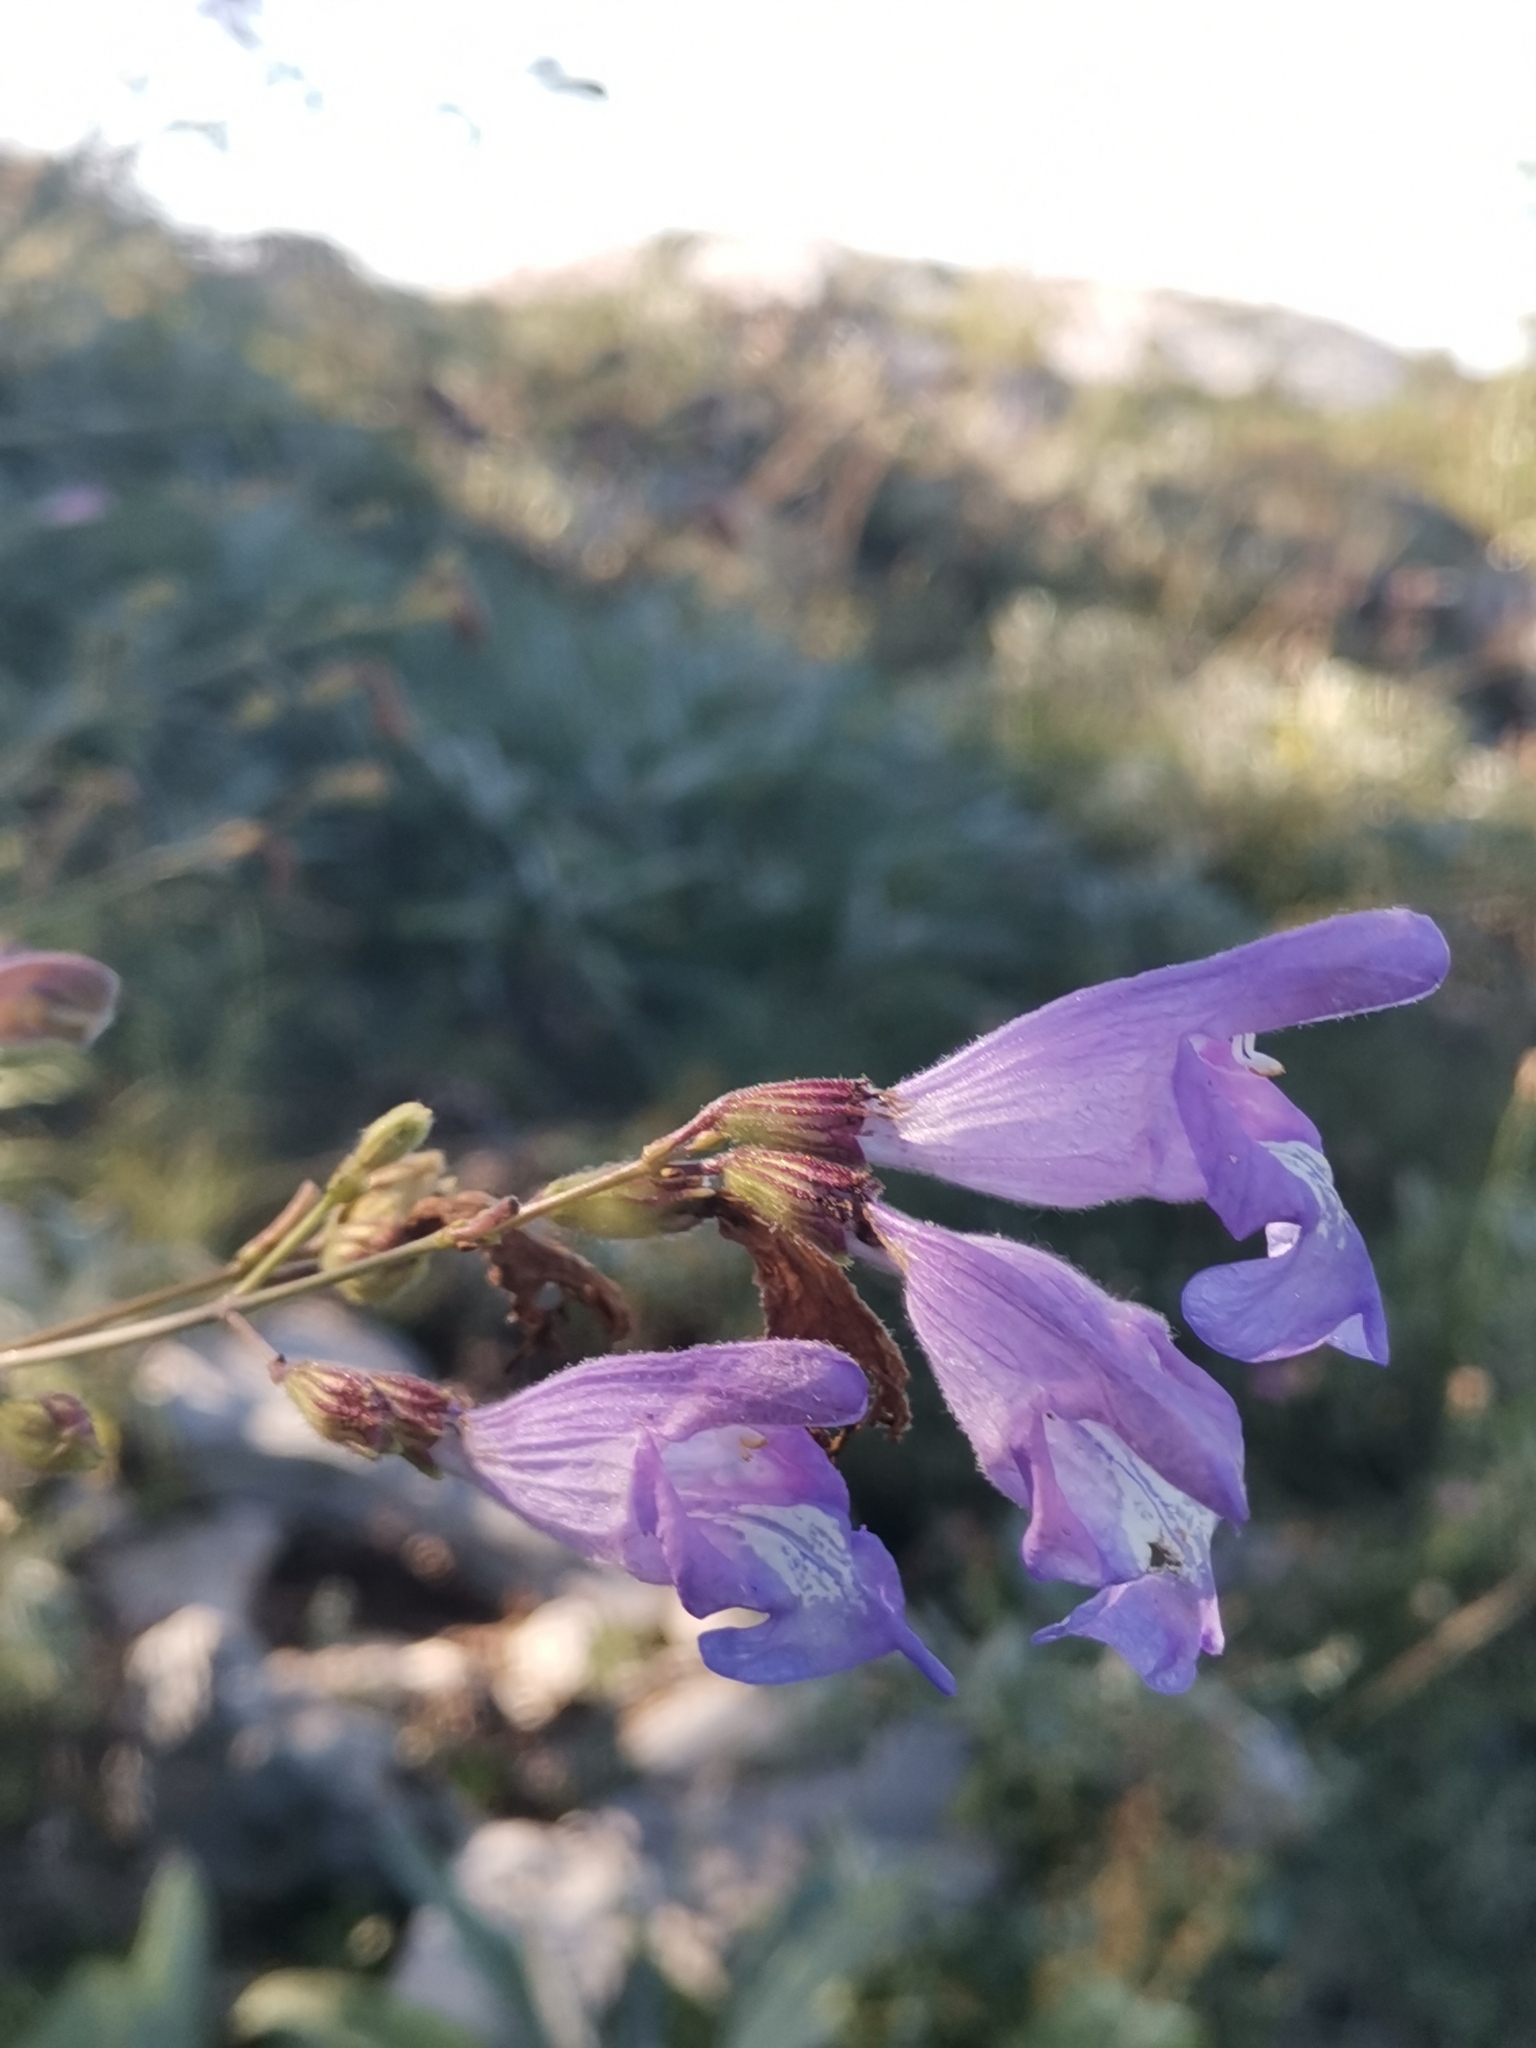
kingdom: Plantae
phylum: Tracheophyta
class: Magnoliopsida
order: Lamiales
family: Lamiaceae
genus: Salvia
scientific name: Salvia brachyodon
